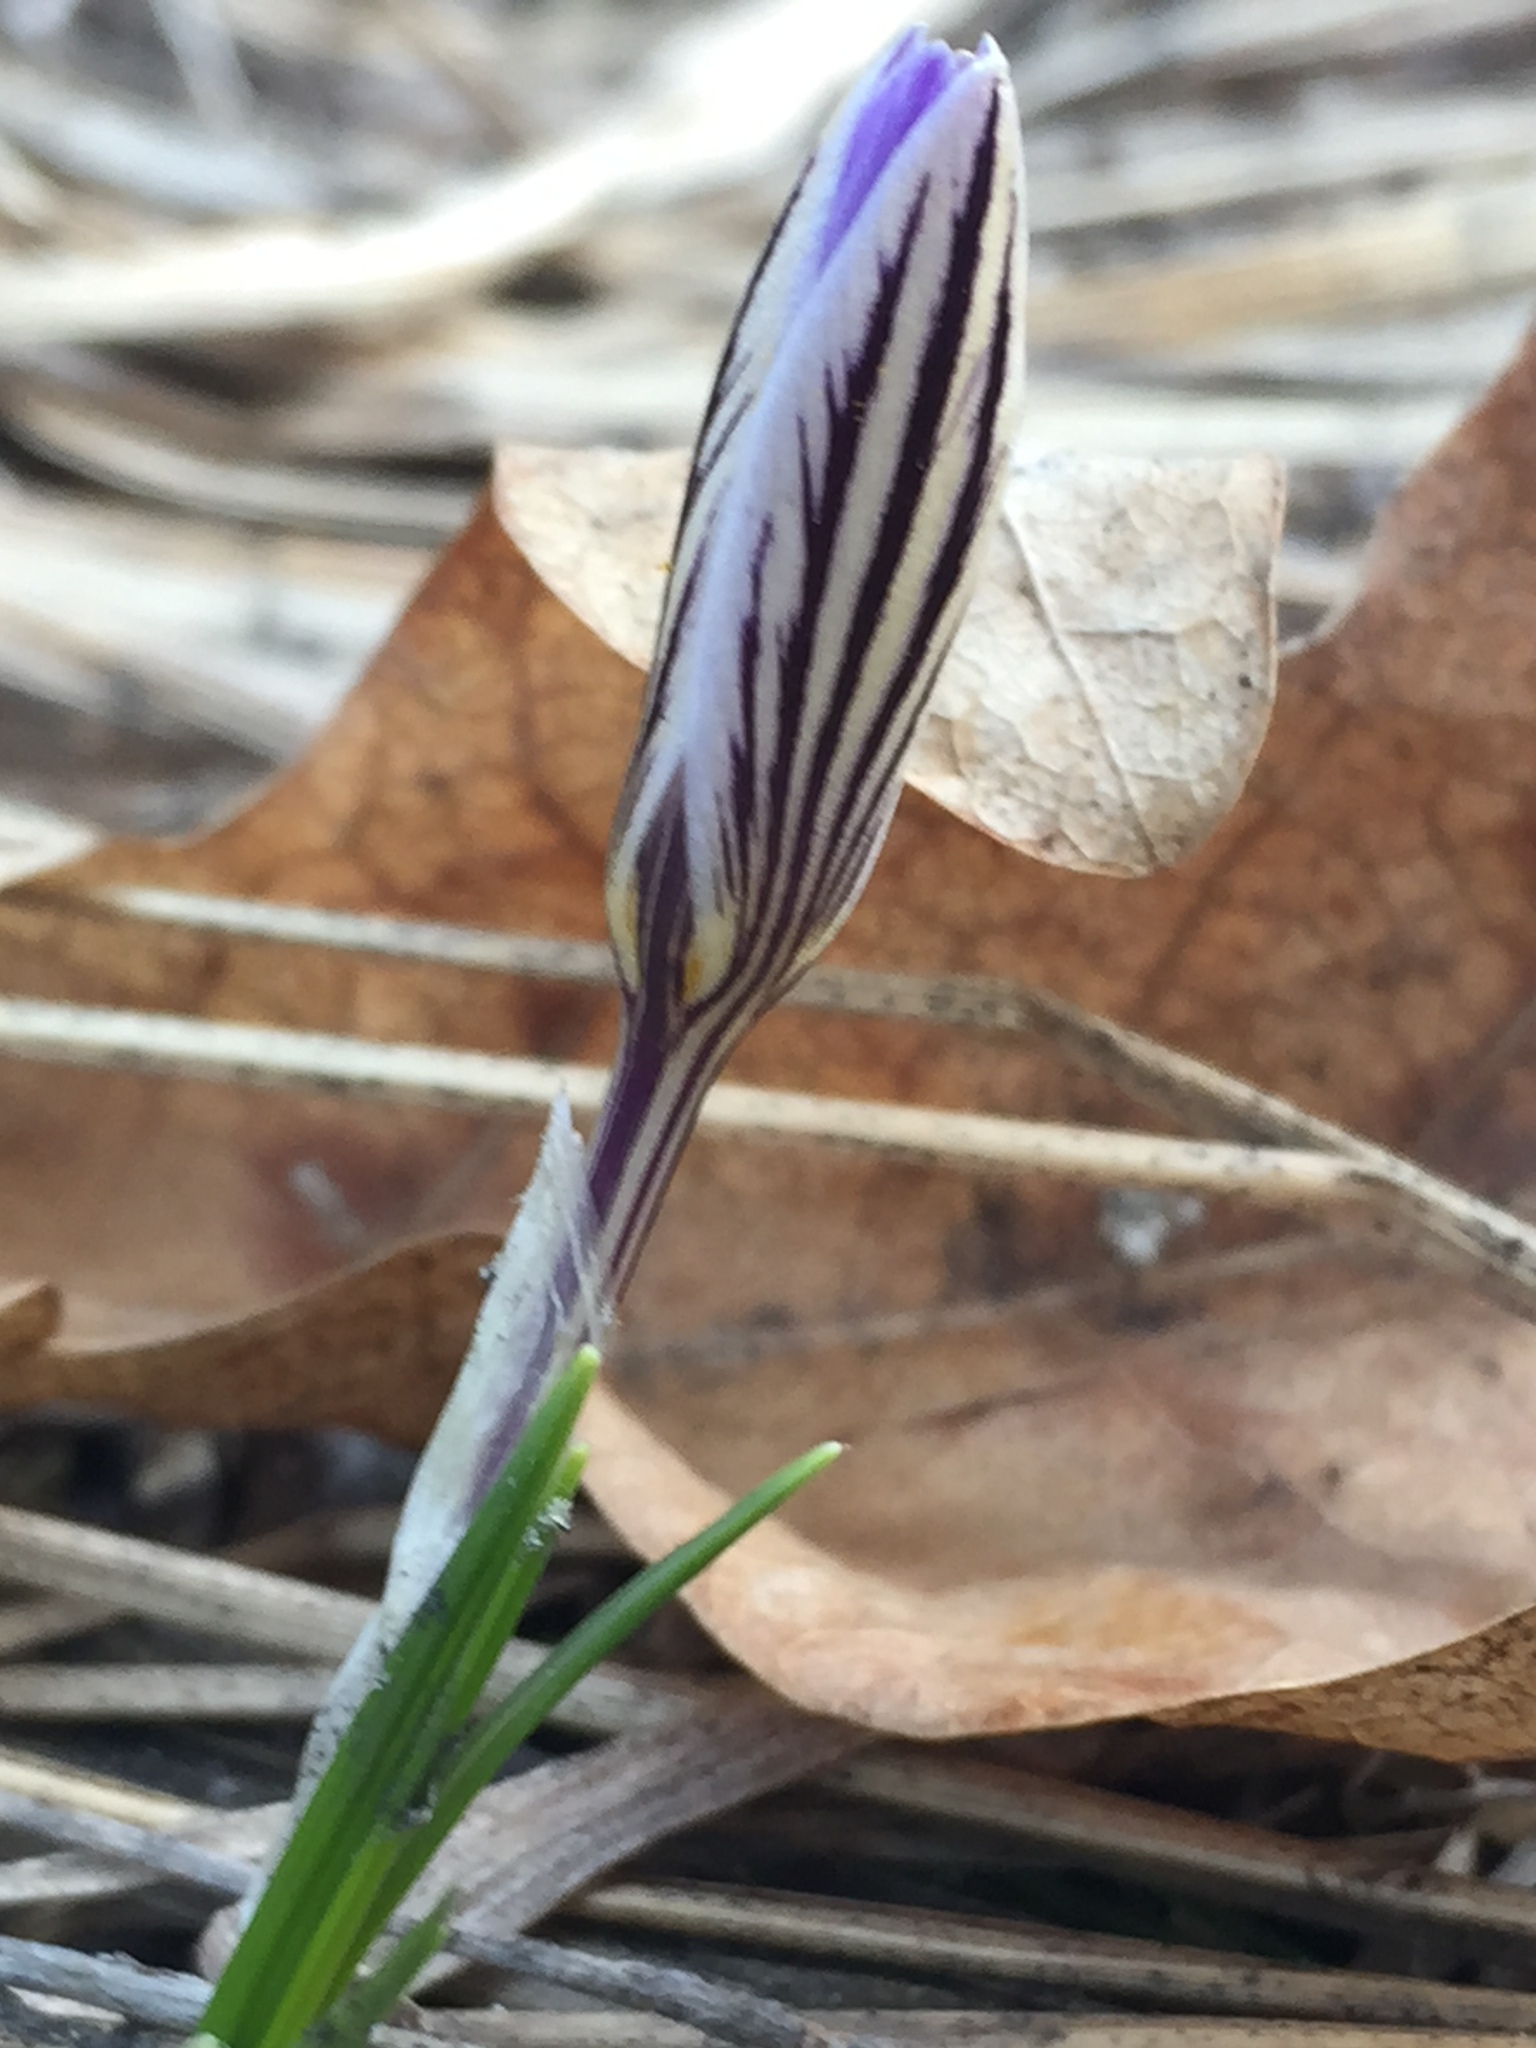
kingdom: Plantae
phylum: Tracheophyta
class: Liliopsida
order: Asparagales
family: Iridaceae
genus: Crocus
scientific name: Crocus reticulatus
